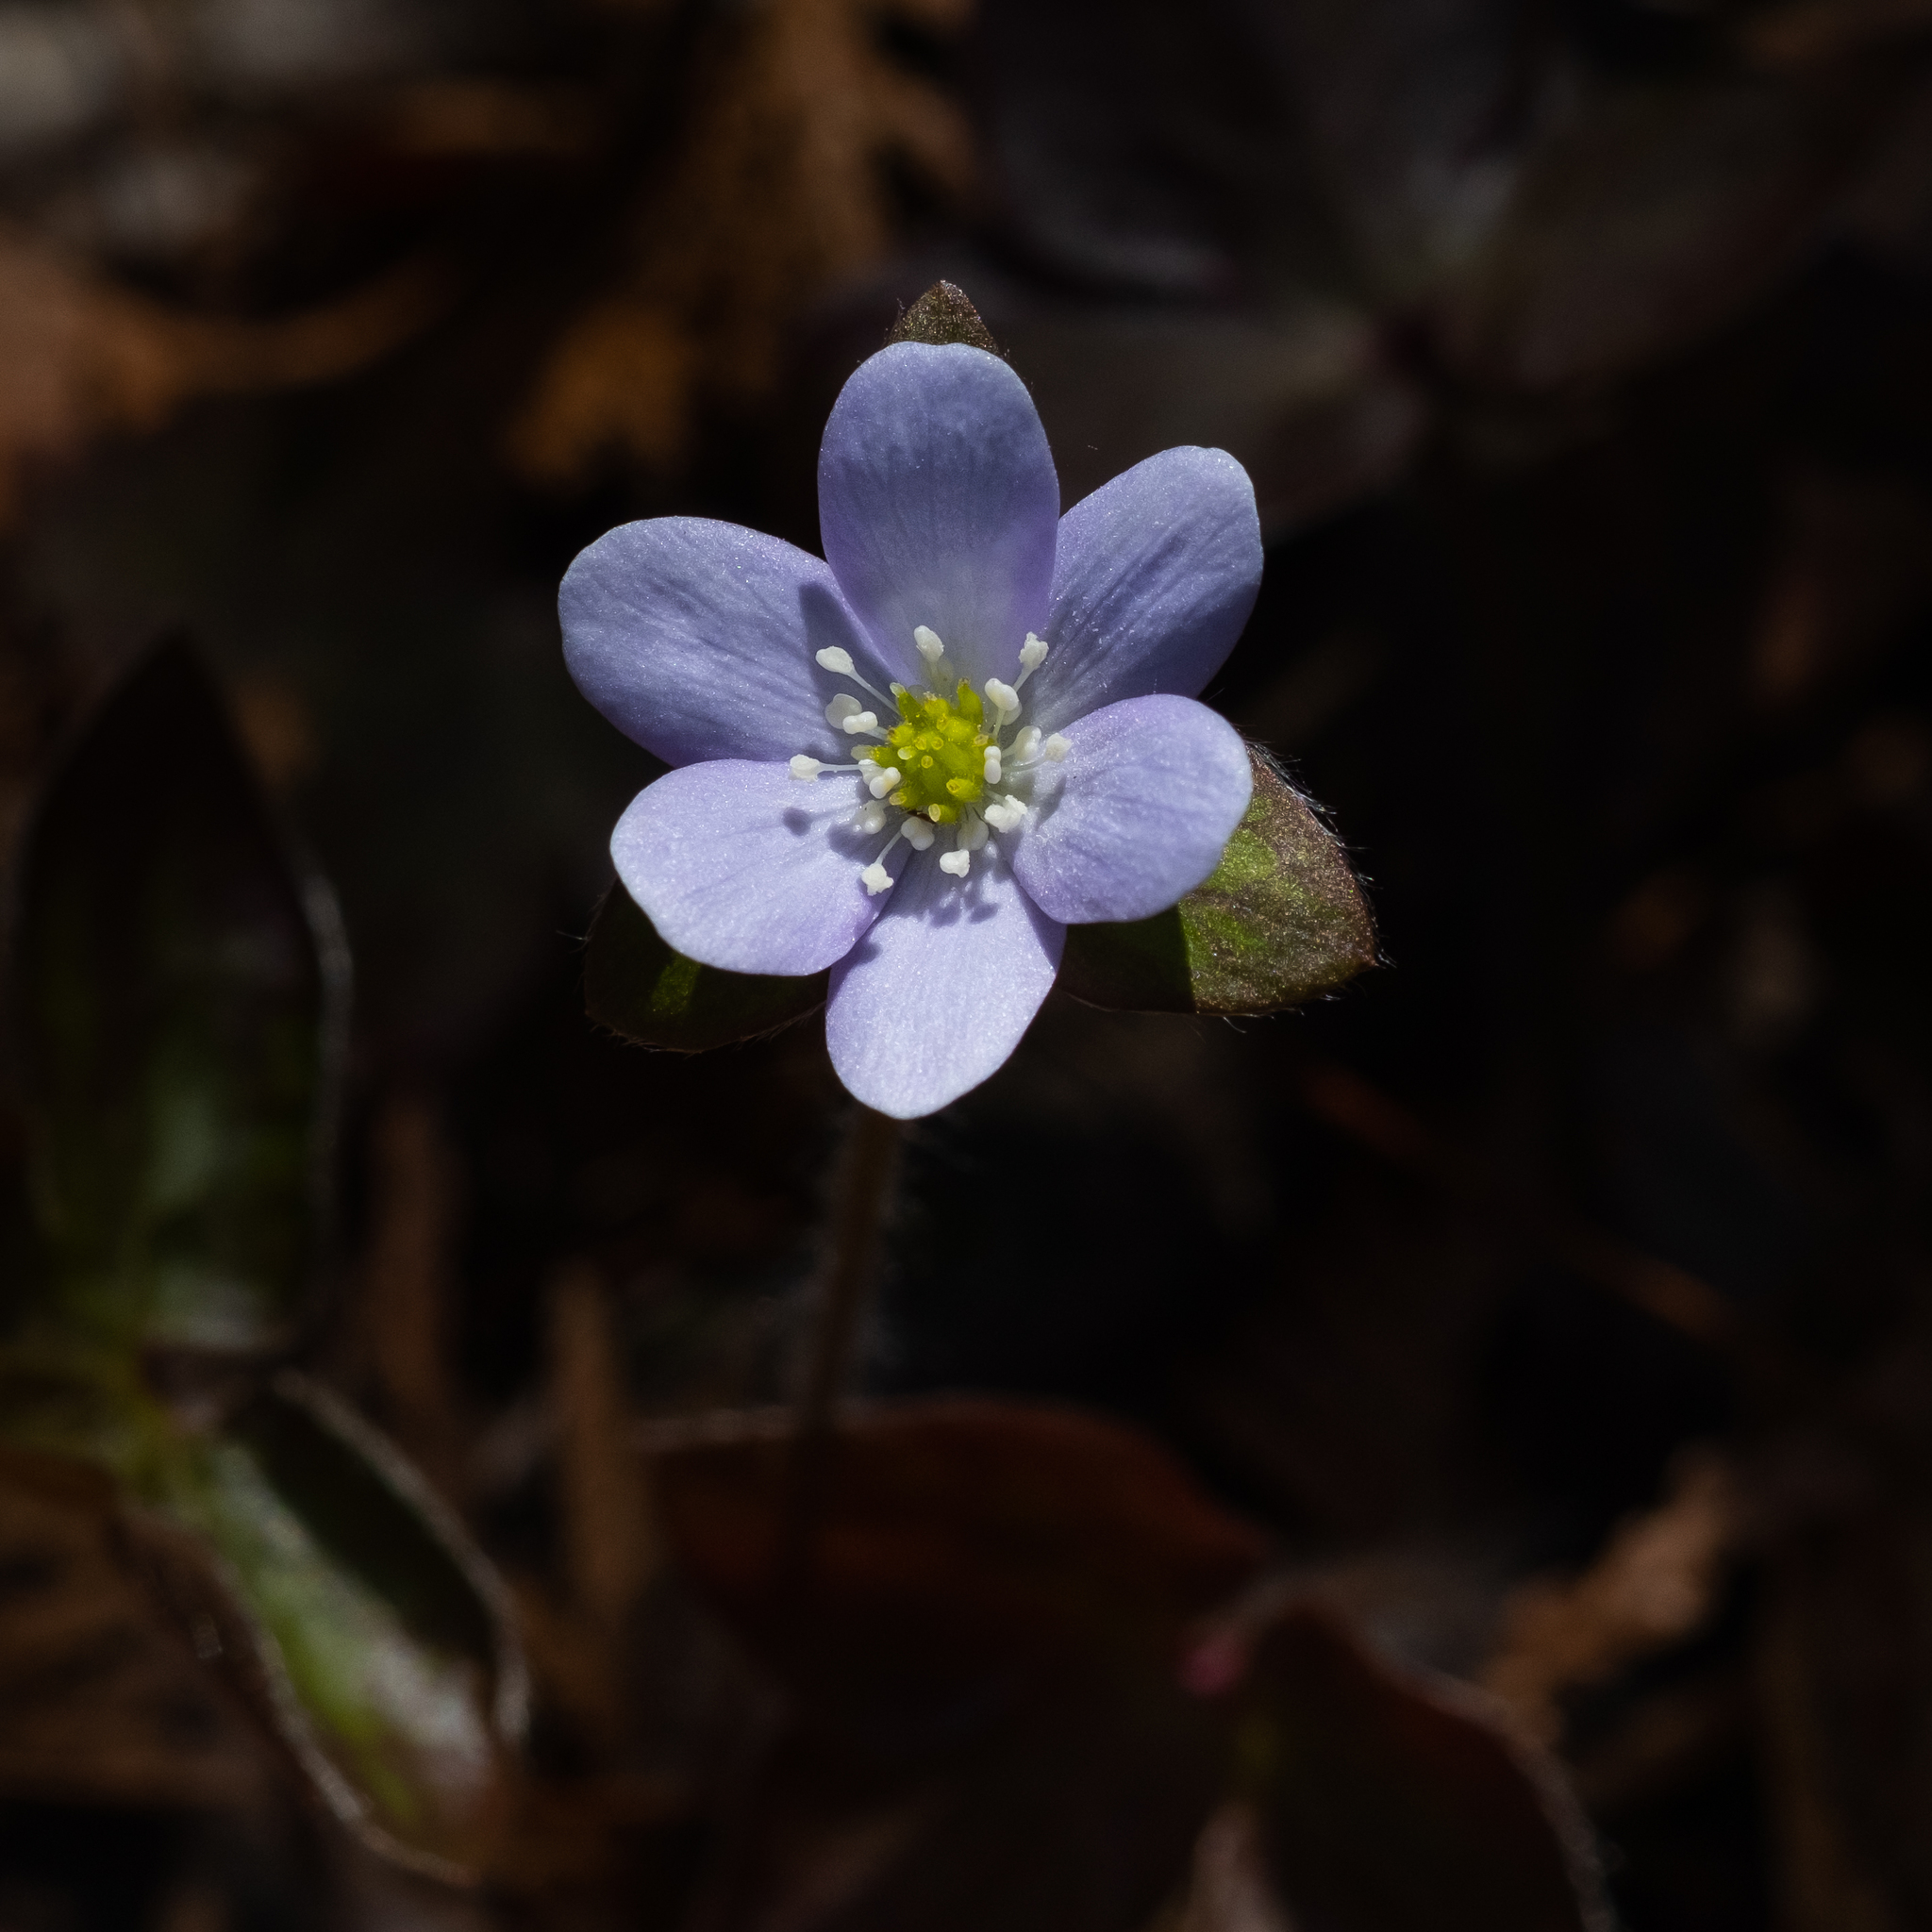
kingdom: Plantae
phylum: Tracheophyta
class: Magnoliopsida
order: Ranunculales
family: Ranunculaceae
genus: Hepatica
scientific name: Hepatica acutiloba
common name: Sharp-lobed hepatica
